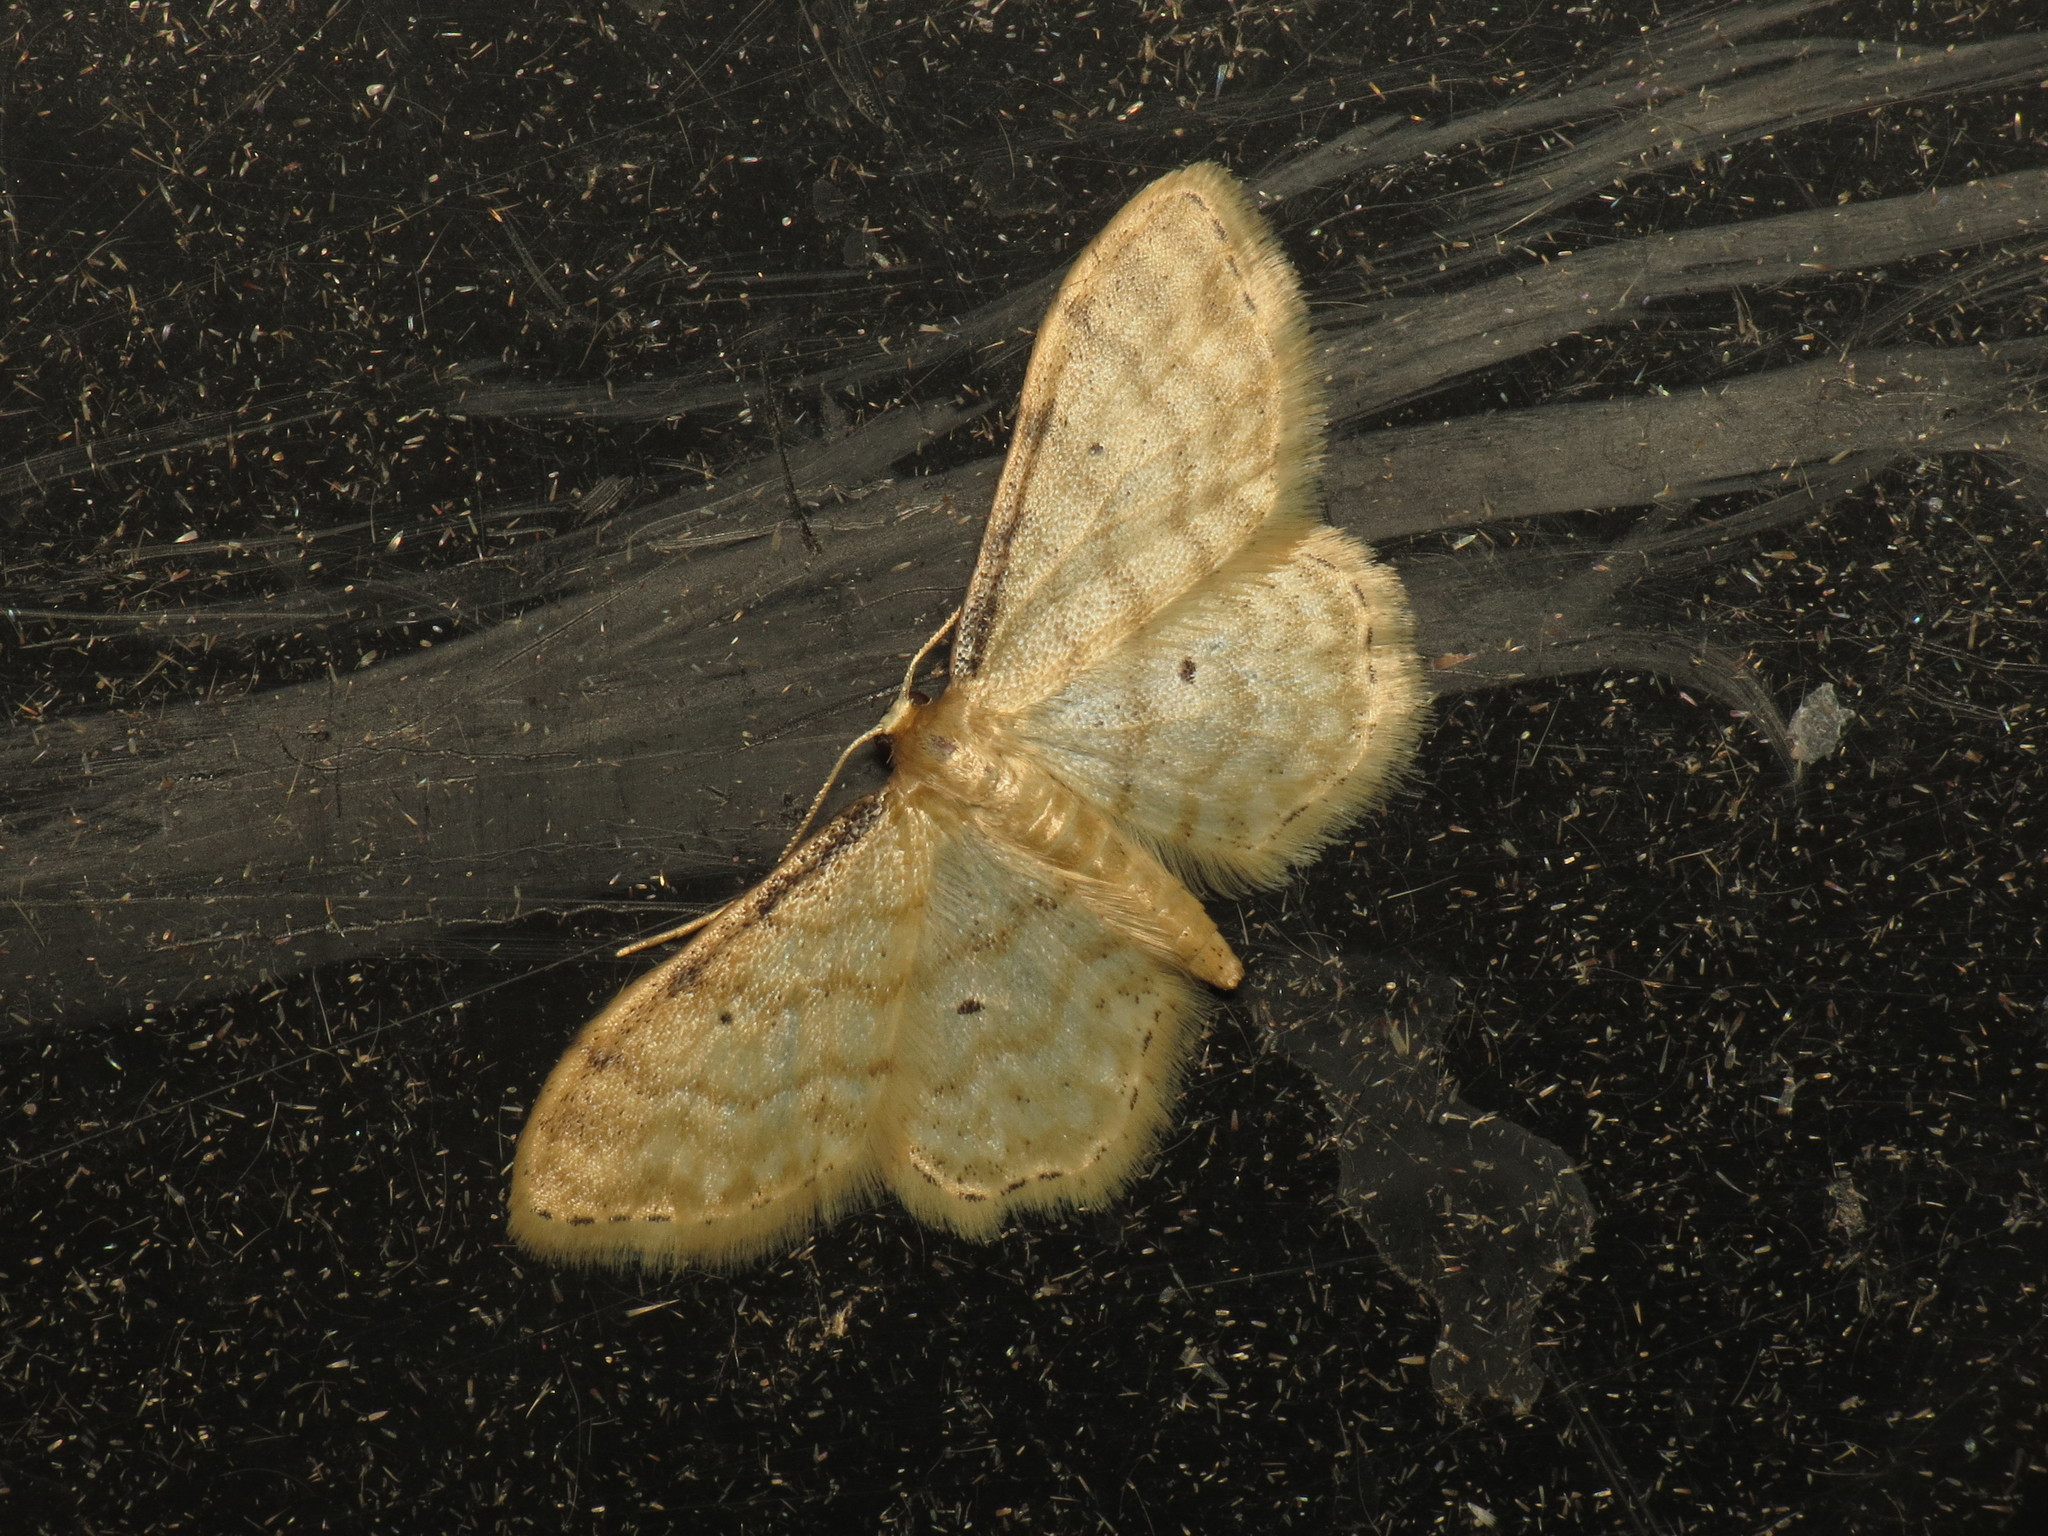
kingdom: Animalia
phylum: Arthropoda
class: Insecta
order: Lepidoptera
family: Geometridae
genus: Idaea
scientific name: Idaea fuscovenosa
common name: Dwarf cream wave
